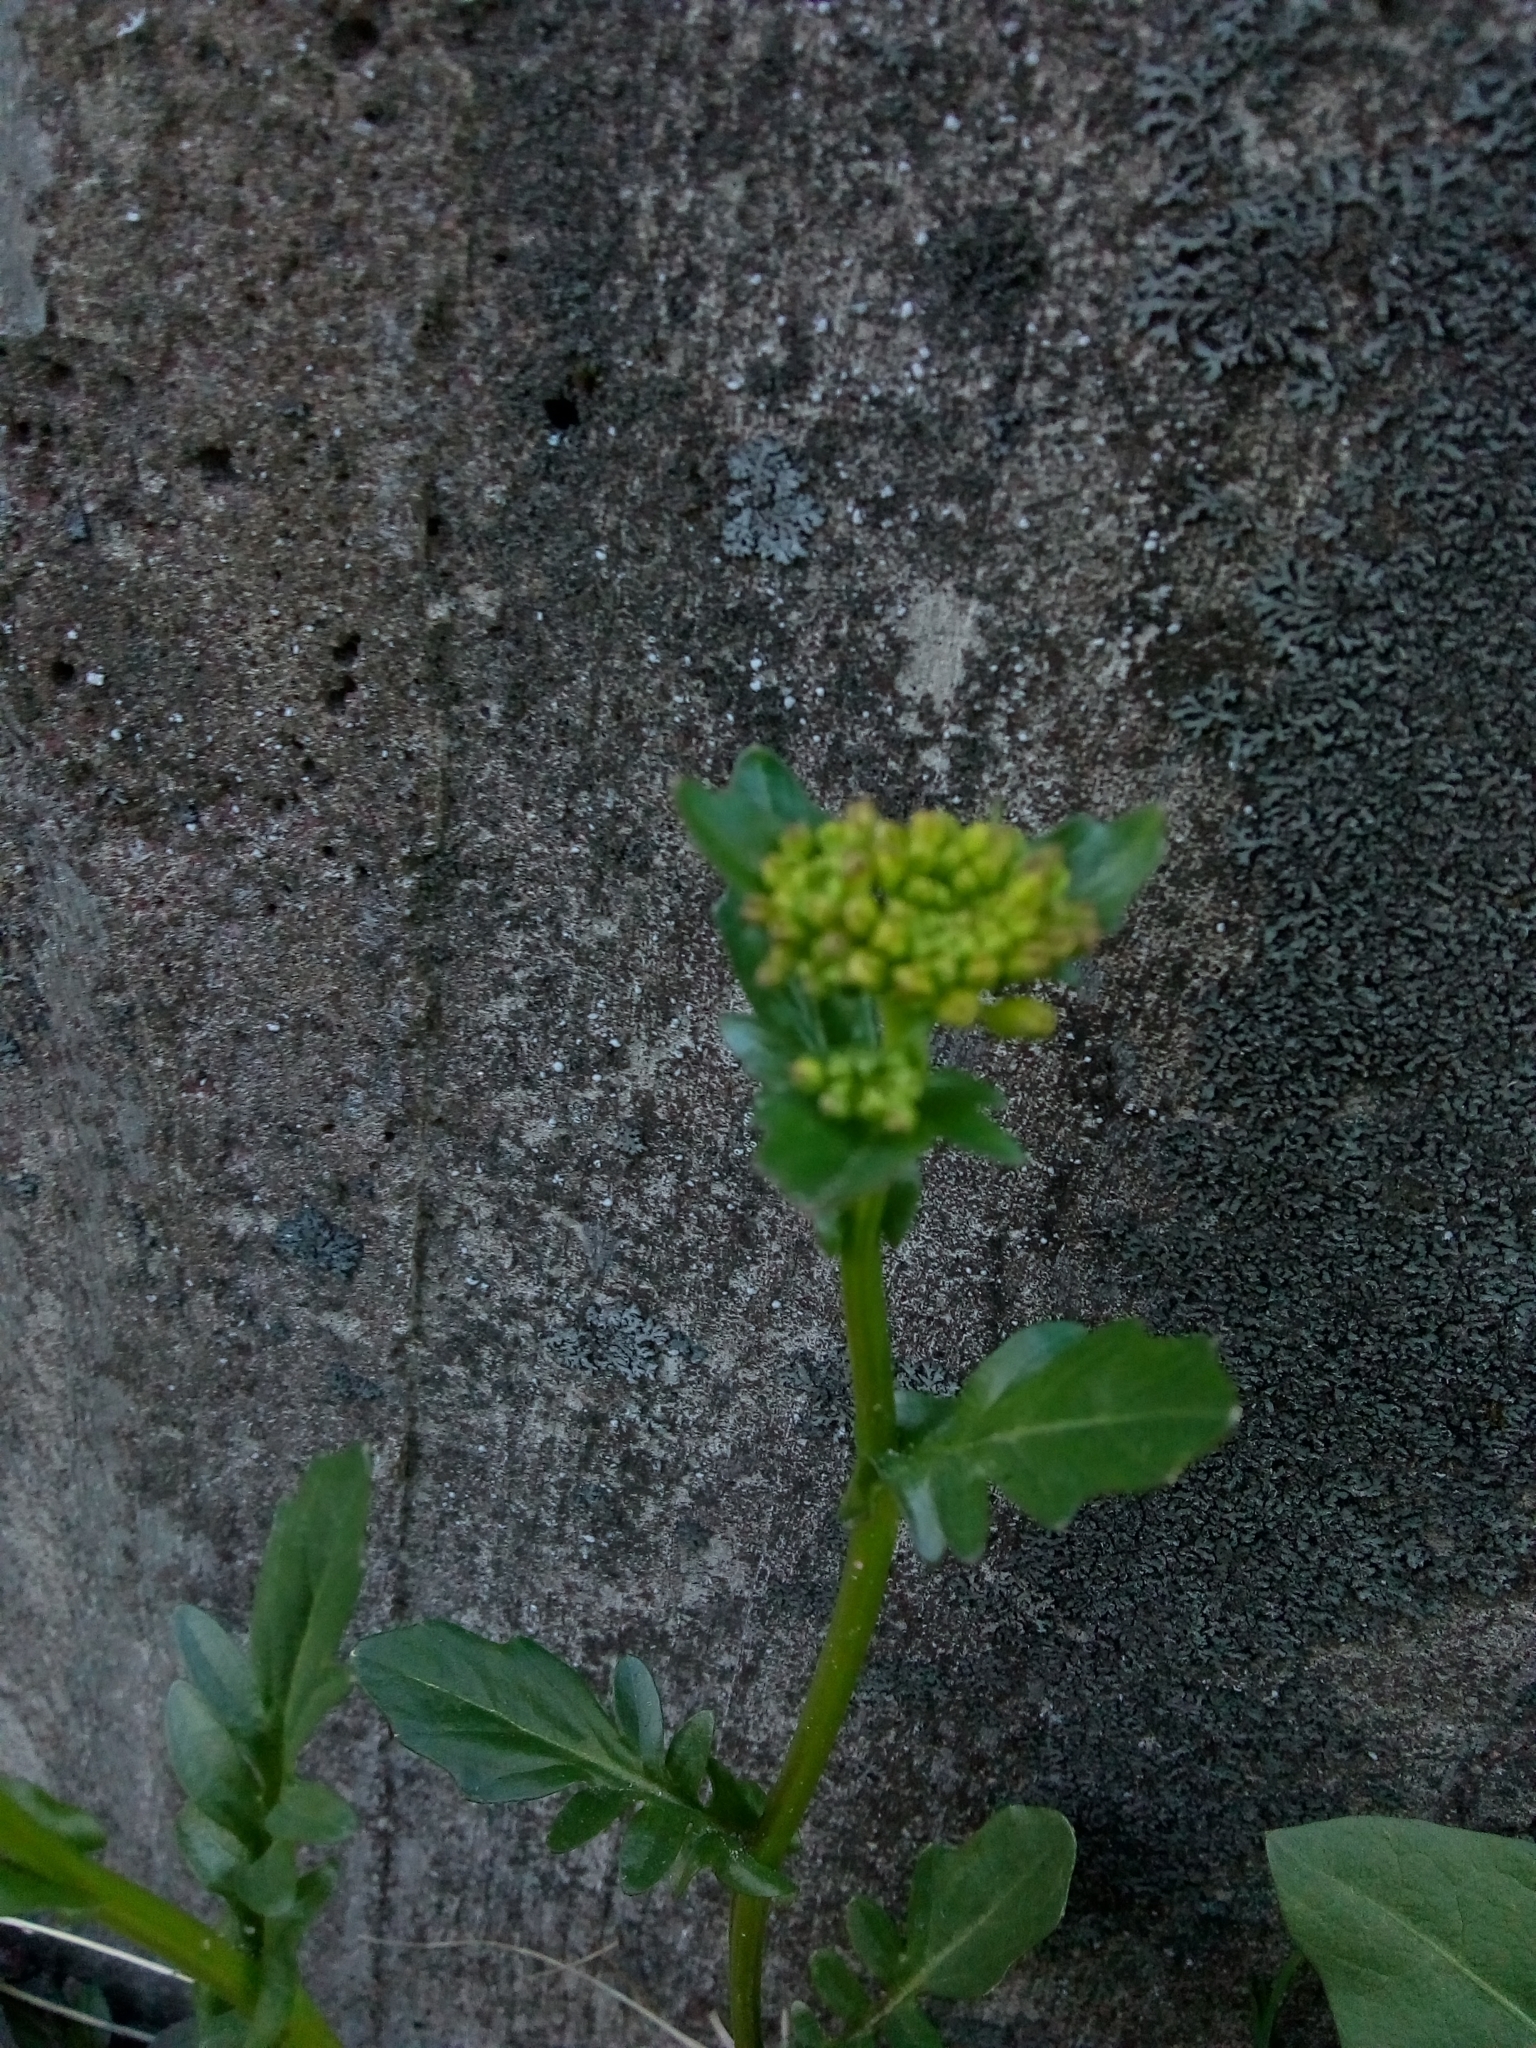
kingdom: Plantae
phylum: Tracheophyta
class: Magnoliopsida
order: Brassicales
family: Brassicaceae
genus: Barbarea
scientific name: Barbarea vulgaris
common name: Cressy-greens
